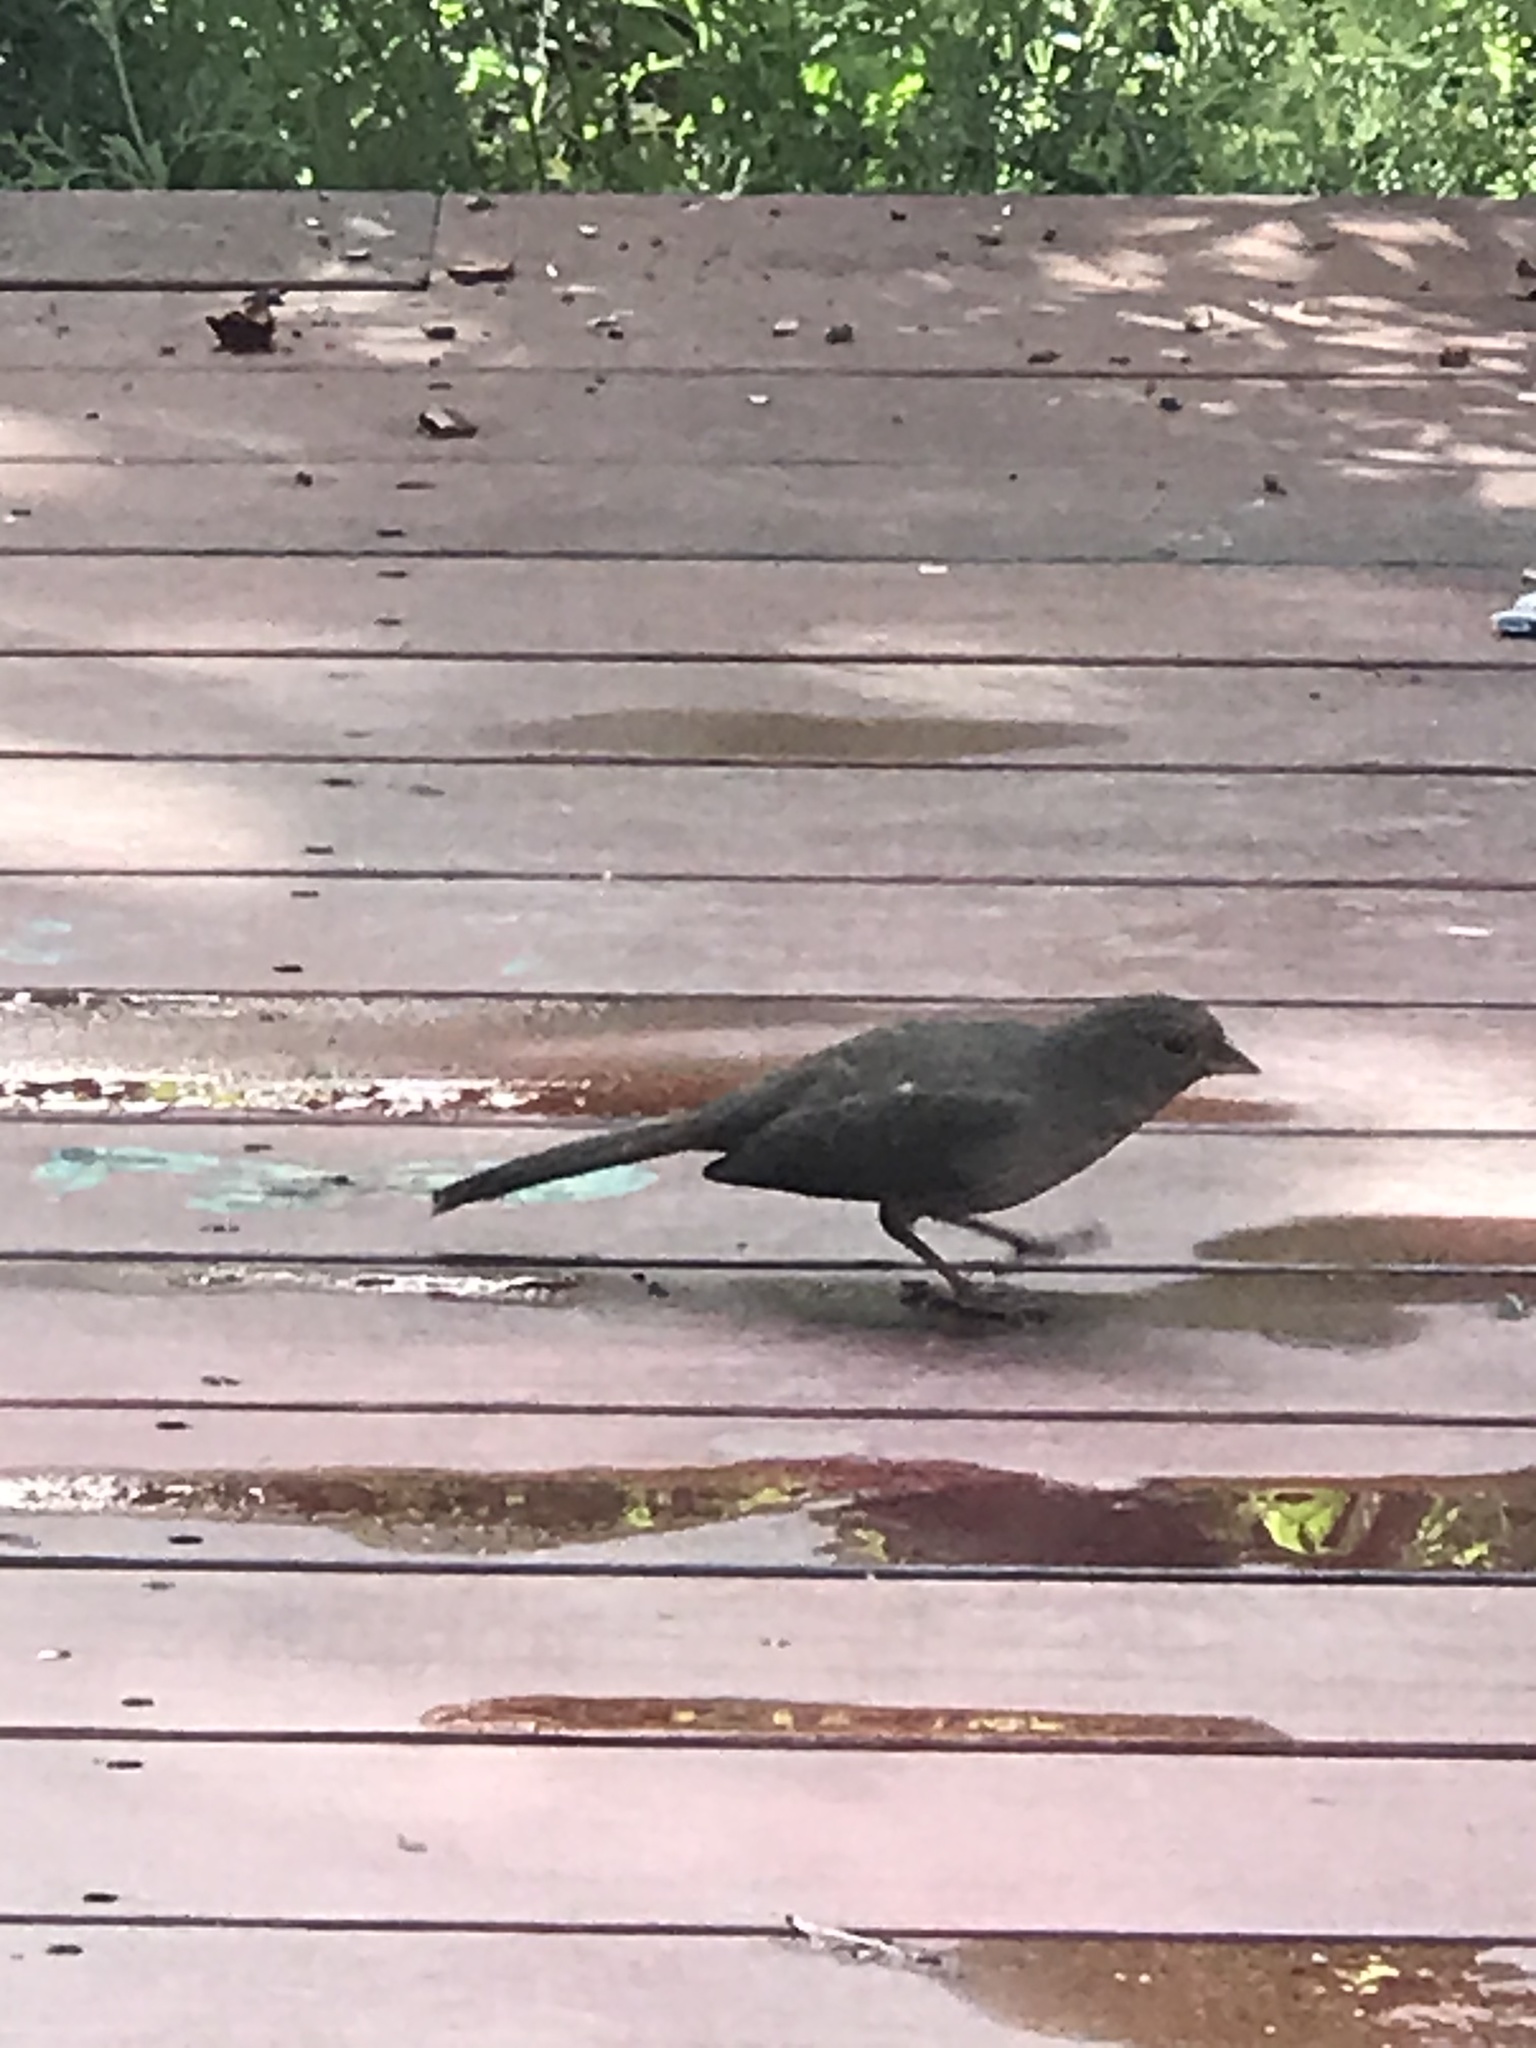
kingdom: Animalia
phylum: Chordata
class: Aves
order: Passeriformes
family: Passerellidae
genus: Melozone
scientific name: Melozone crissalis
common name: California towhee
